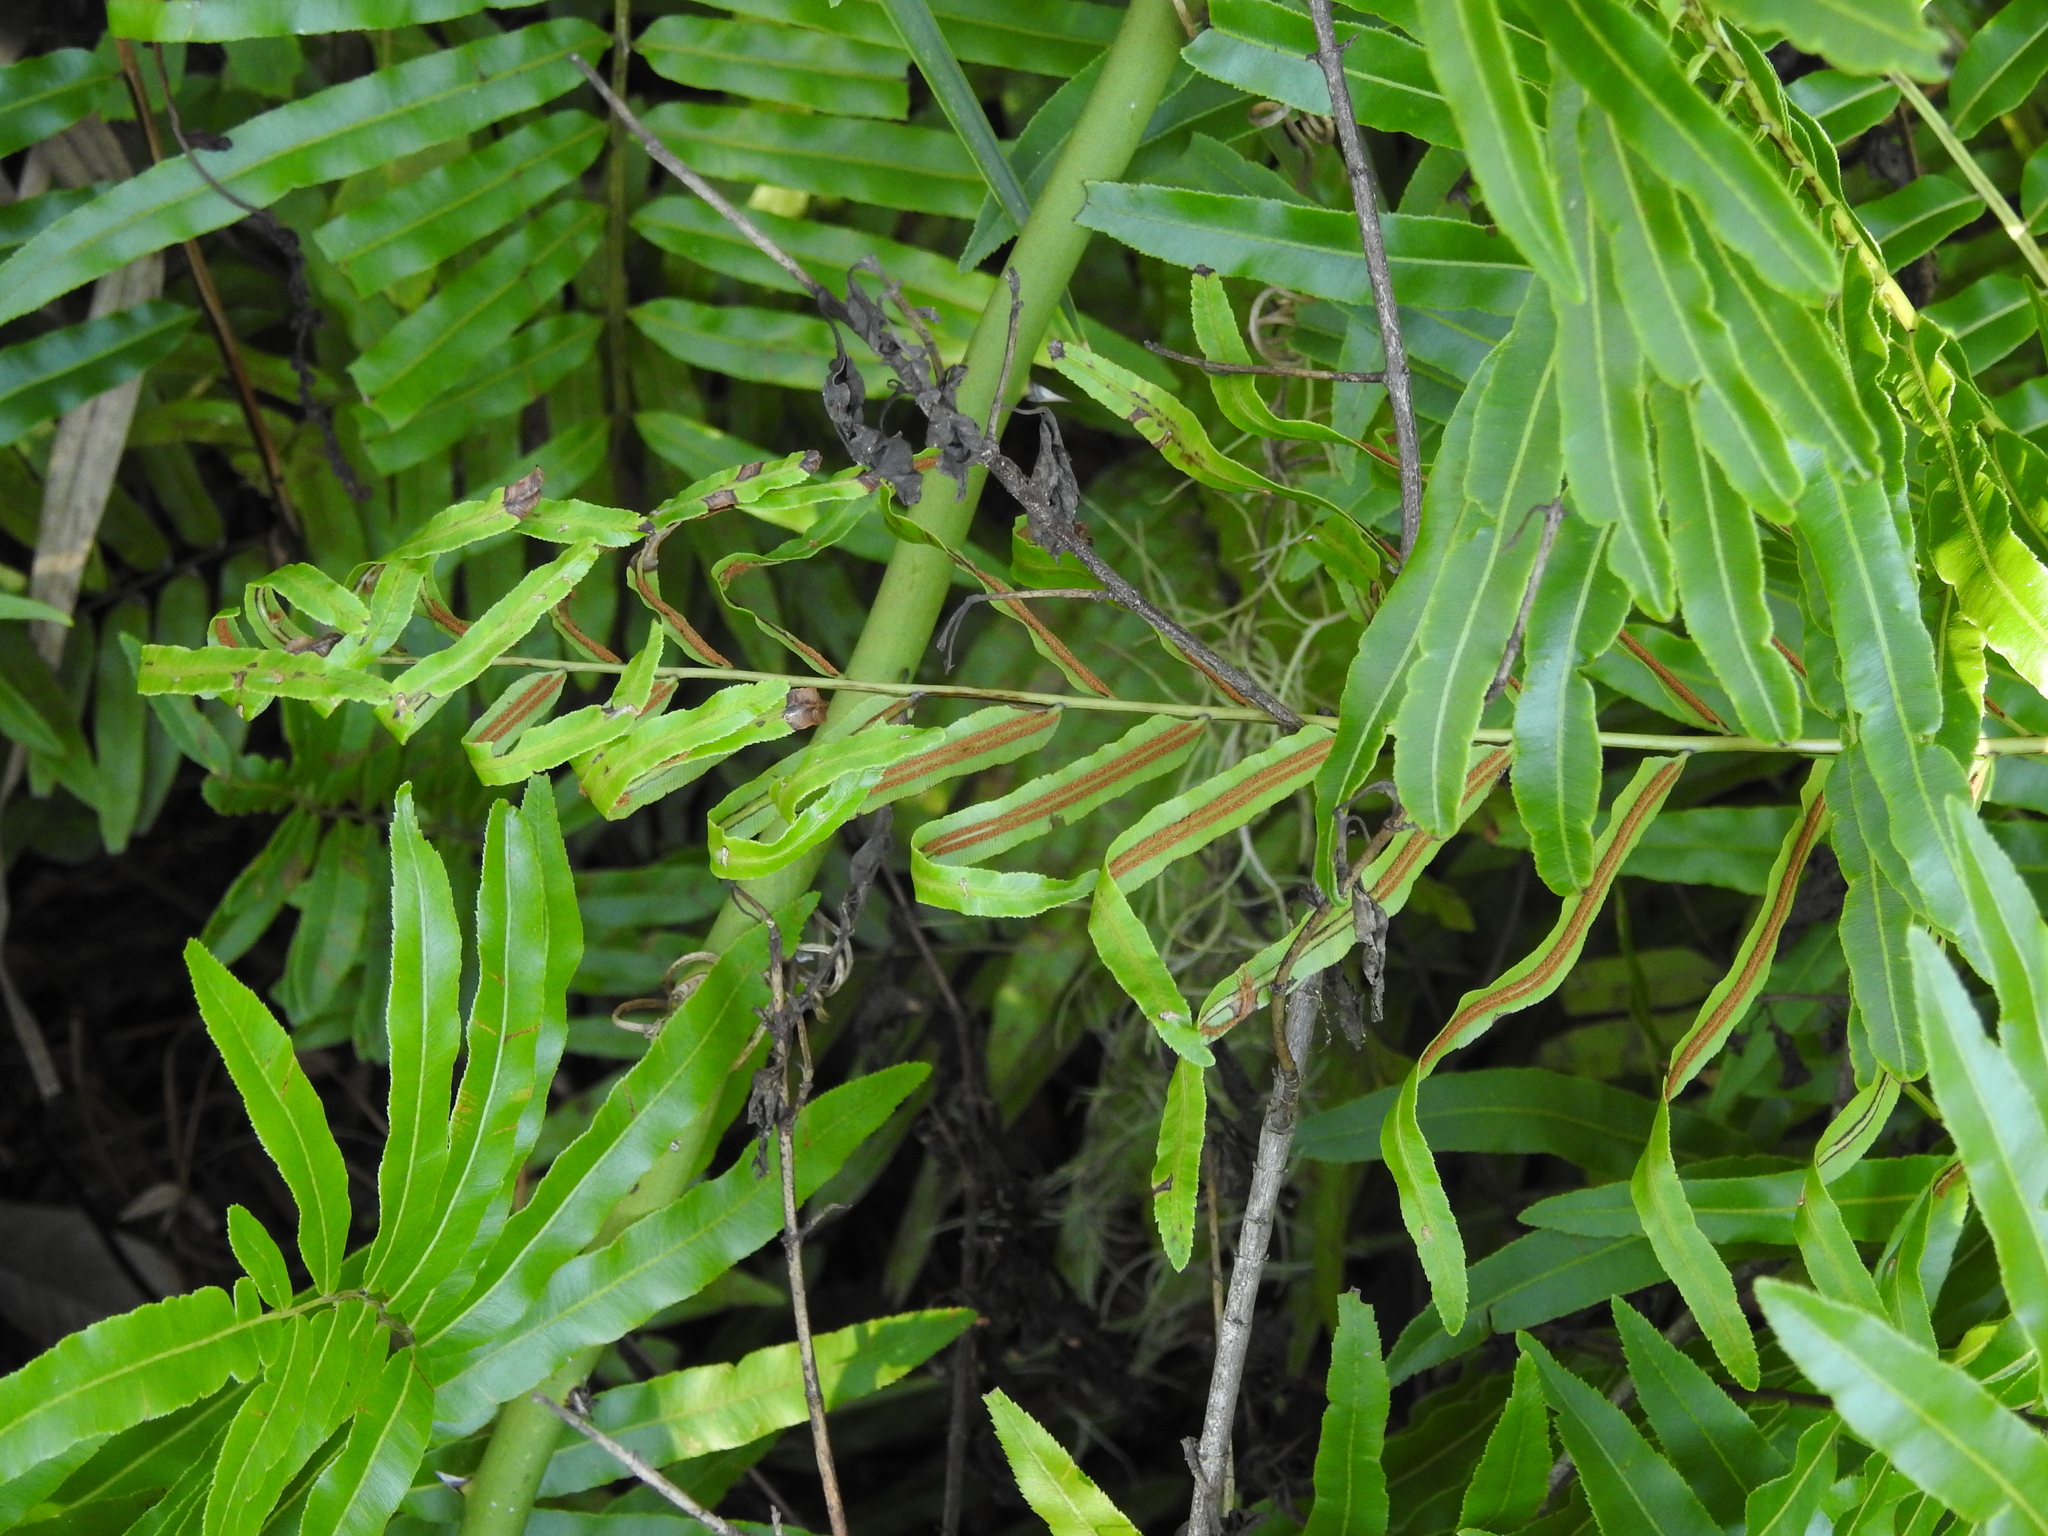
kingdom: Plantae
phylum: Tracheophyta
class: Polypodiopsida
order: Polypodiales
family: Blechnaceae
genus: Telmatoblechnum
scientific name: Telmatoblechnum serrulatum
